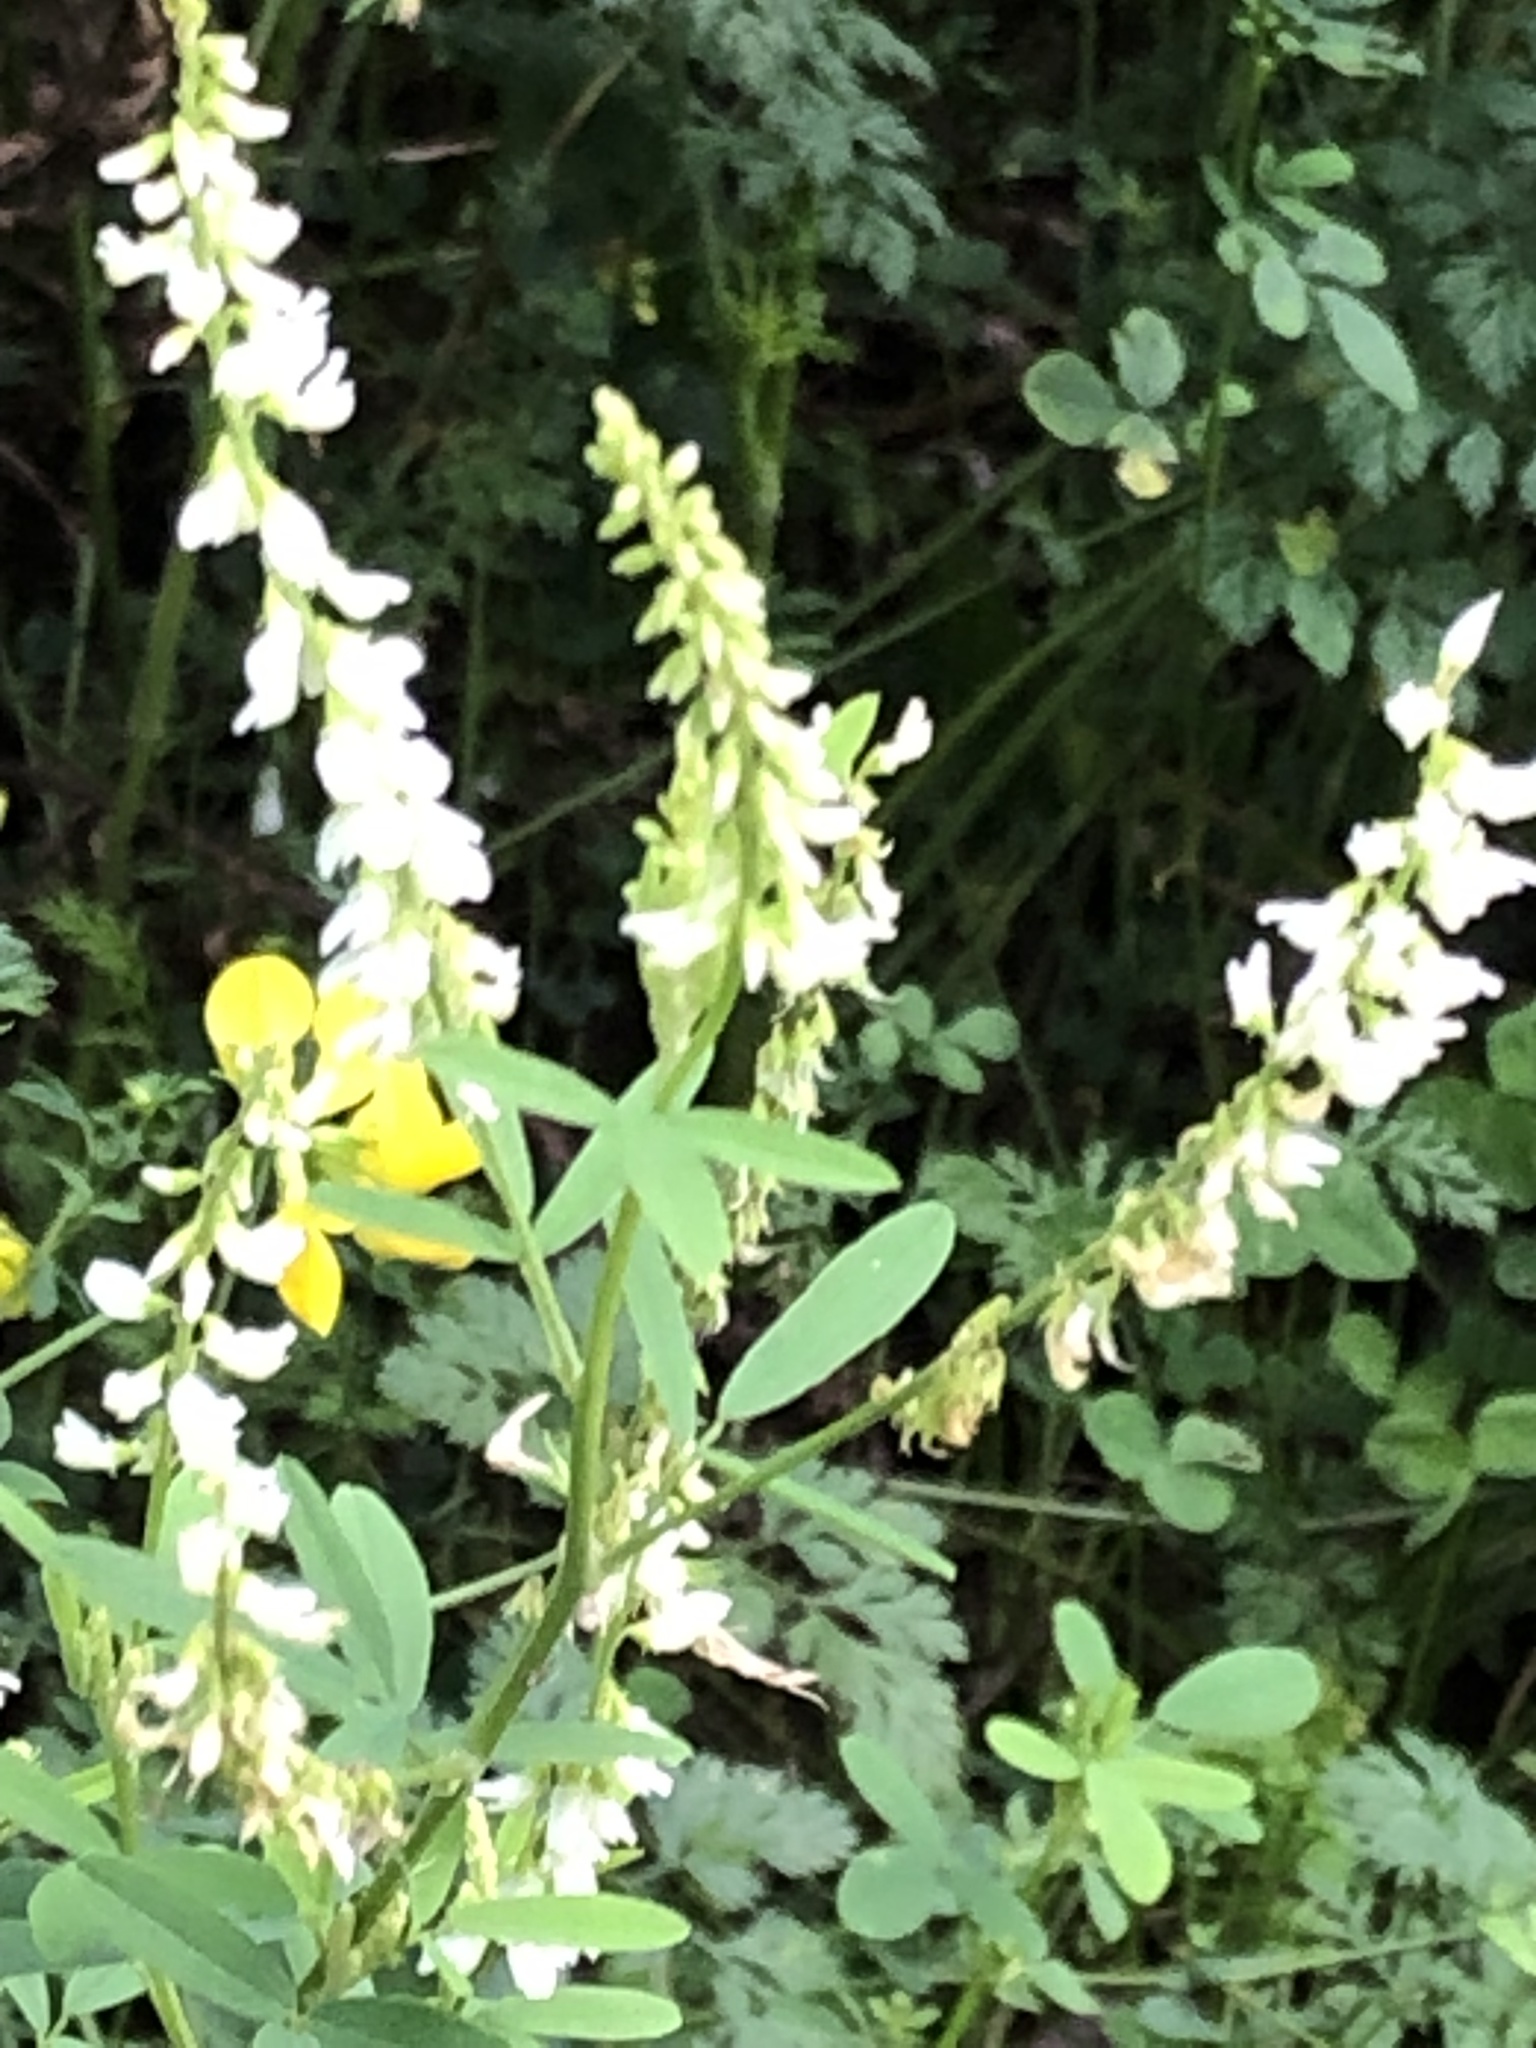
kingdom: Plantae
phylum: Tracheophyta
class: Magnoliopsida
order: Fabales
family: Fabaceae
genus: Melilotus
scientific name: Melilotus albus
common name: White melilot
